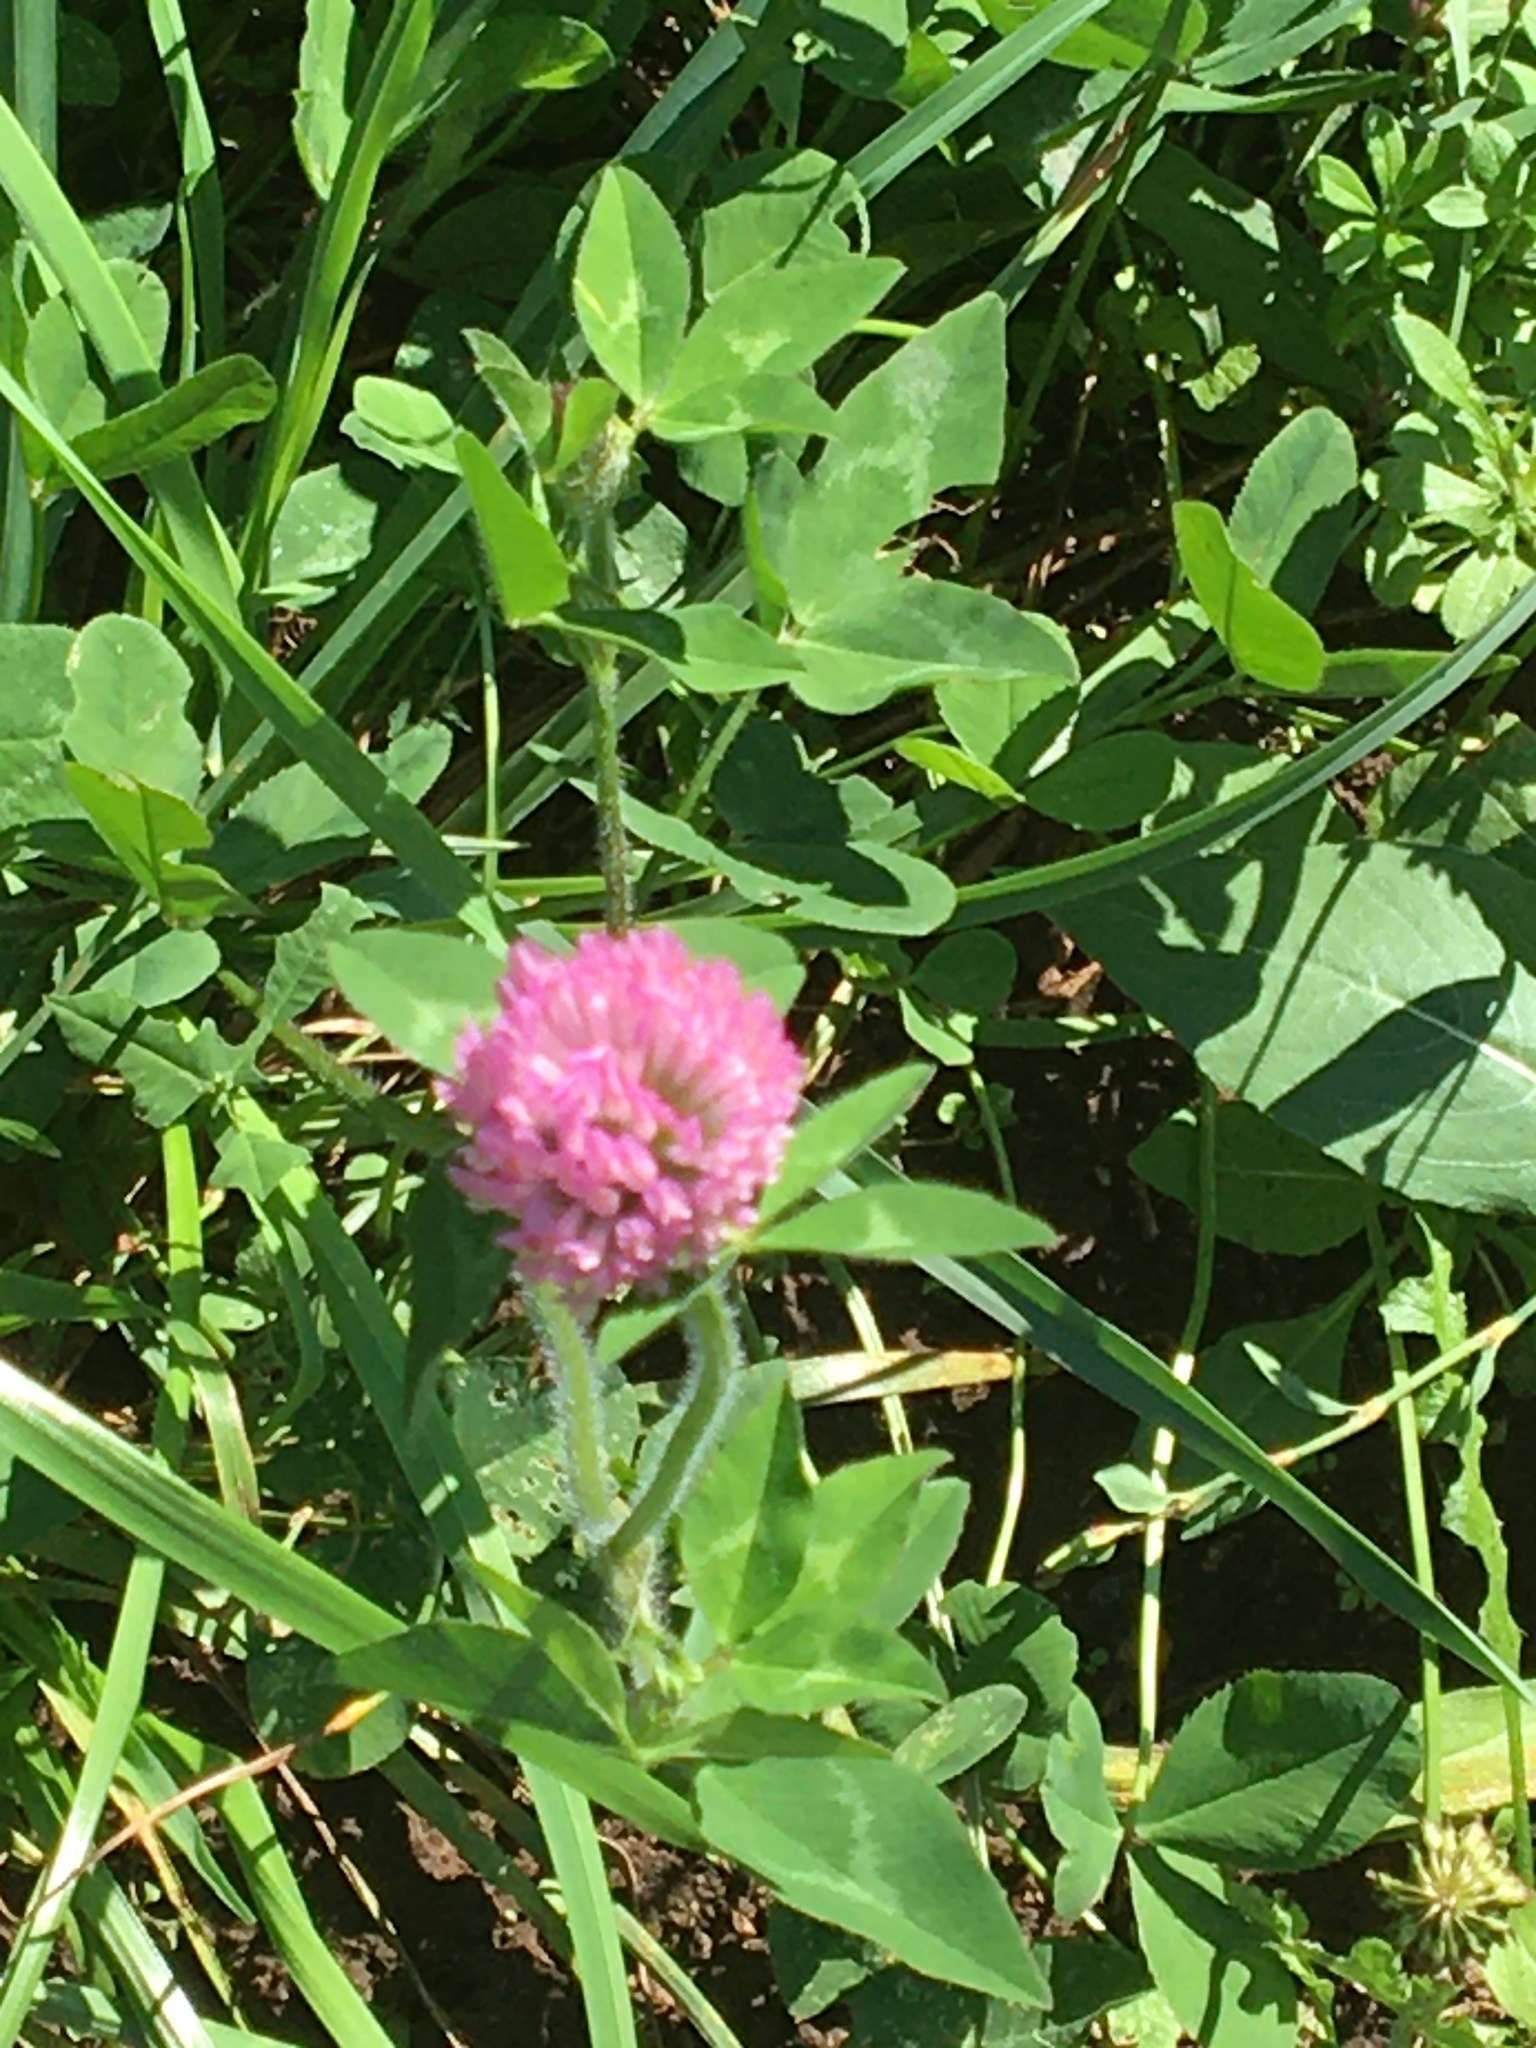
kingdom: Plantae
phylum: Tracheophyta
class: Magnoliopsida
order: Fabales
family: Fabaceae
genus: Trifolium
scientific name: Trifolium pratense
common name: Red clover
